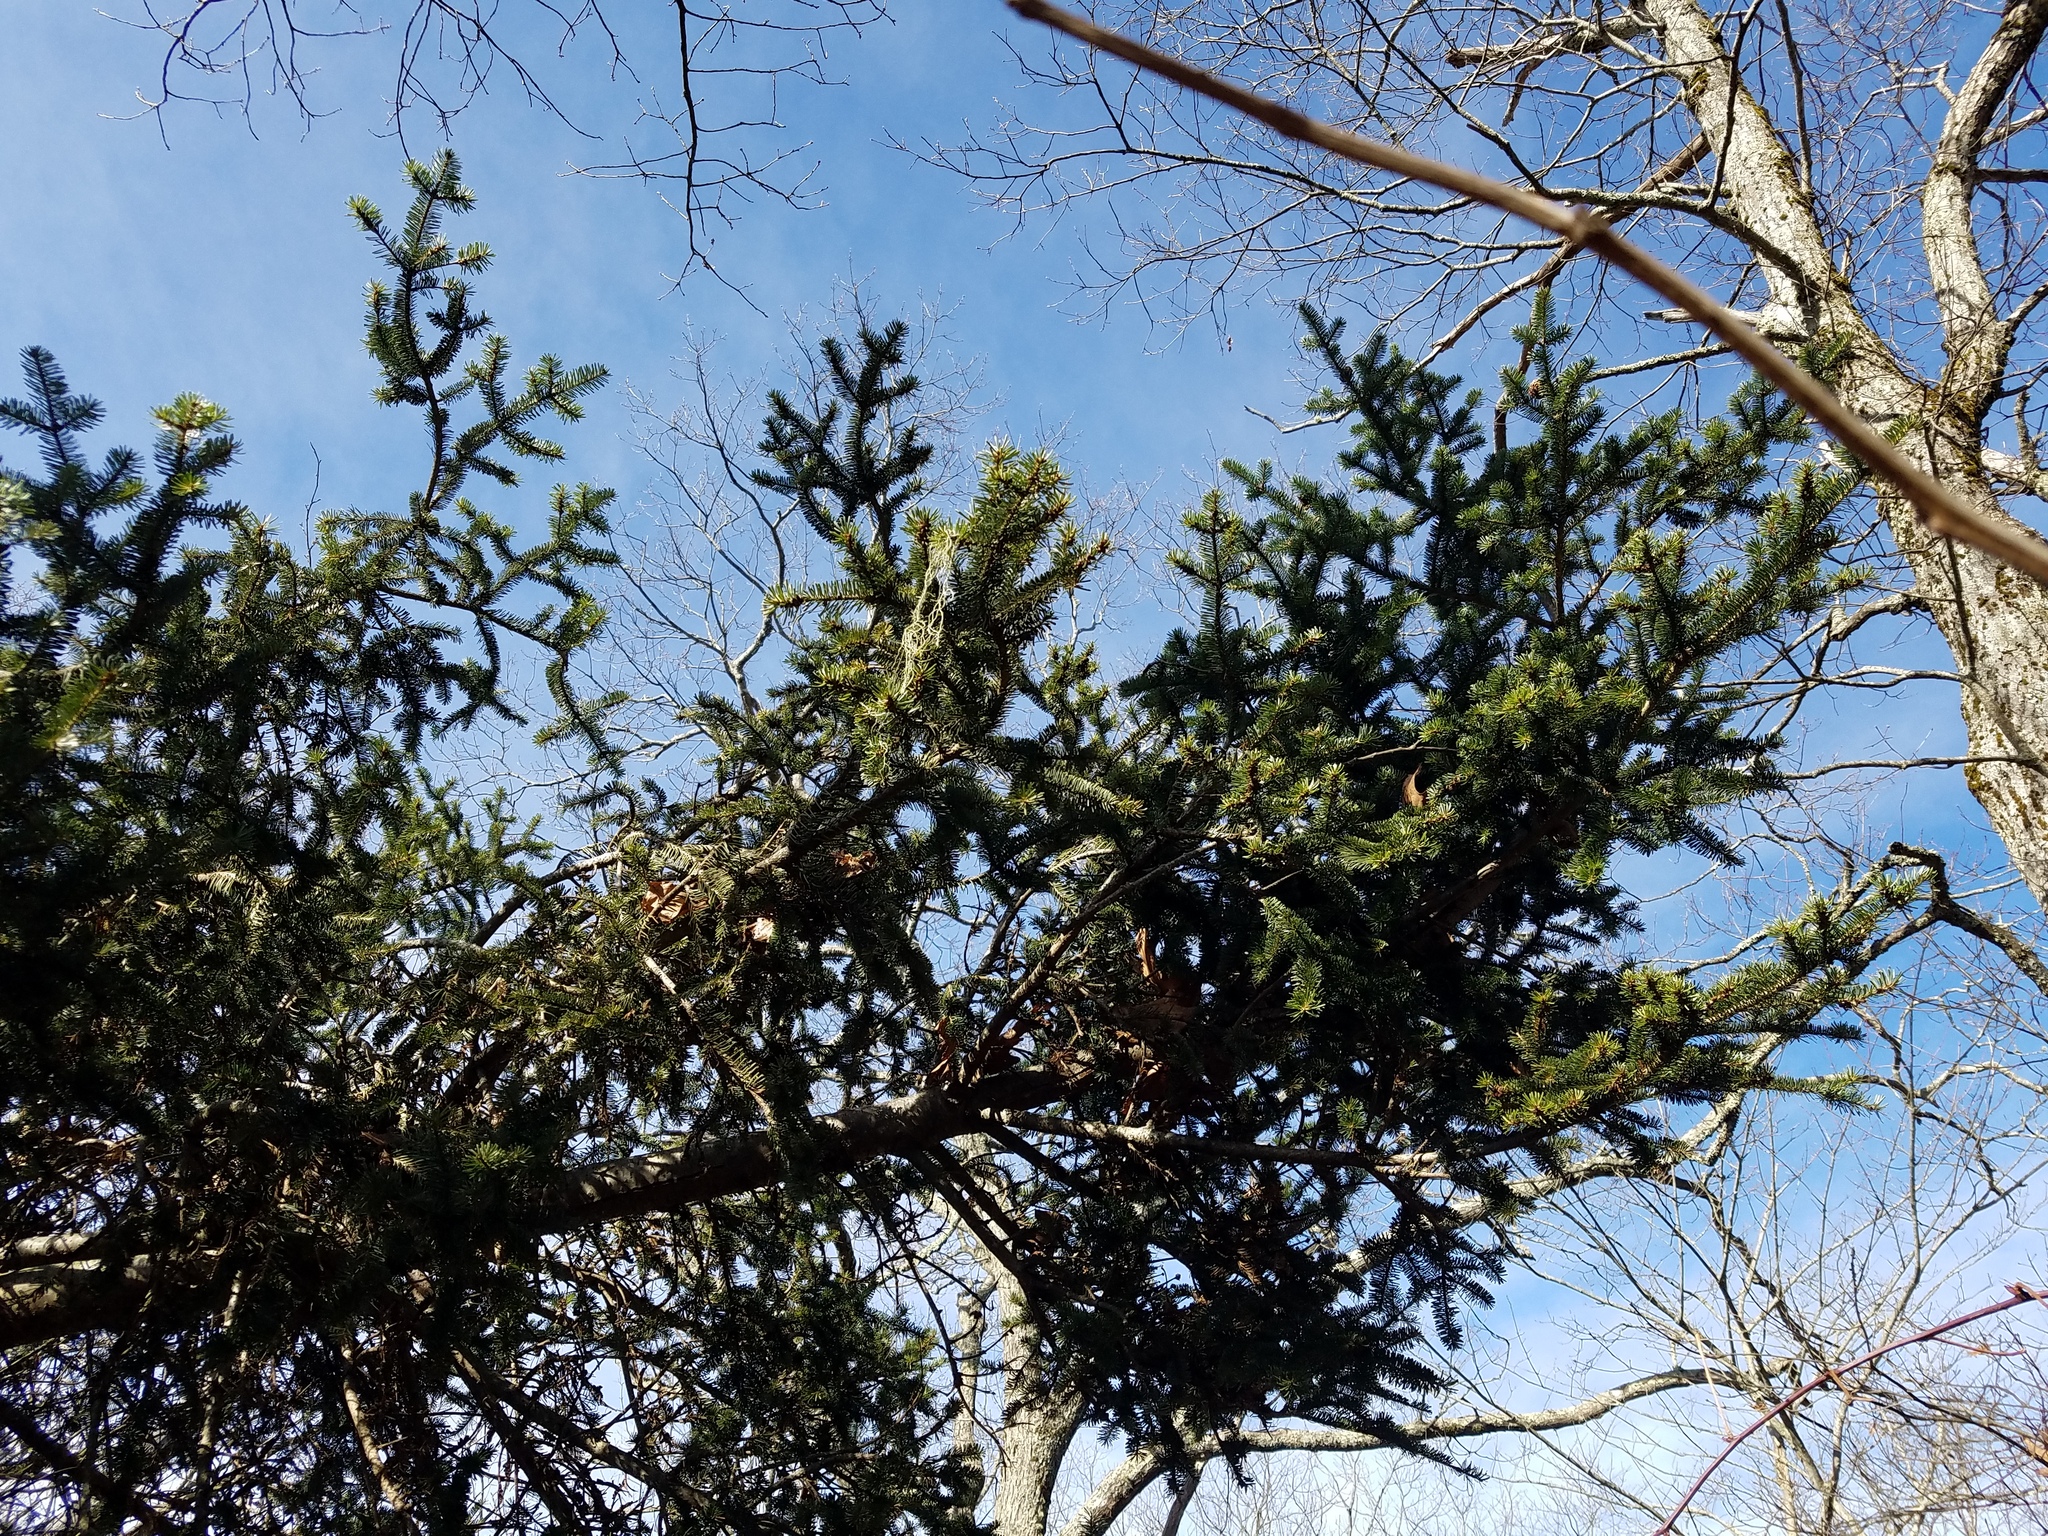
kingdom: Plantae
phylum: Tracheophyta
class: Pinopsida
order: Pinales
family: Pinaceae
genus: Abies
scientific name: Abies fraseri
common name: Fraser fir
